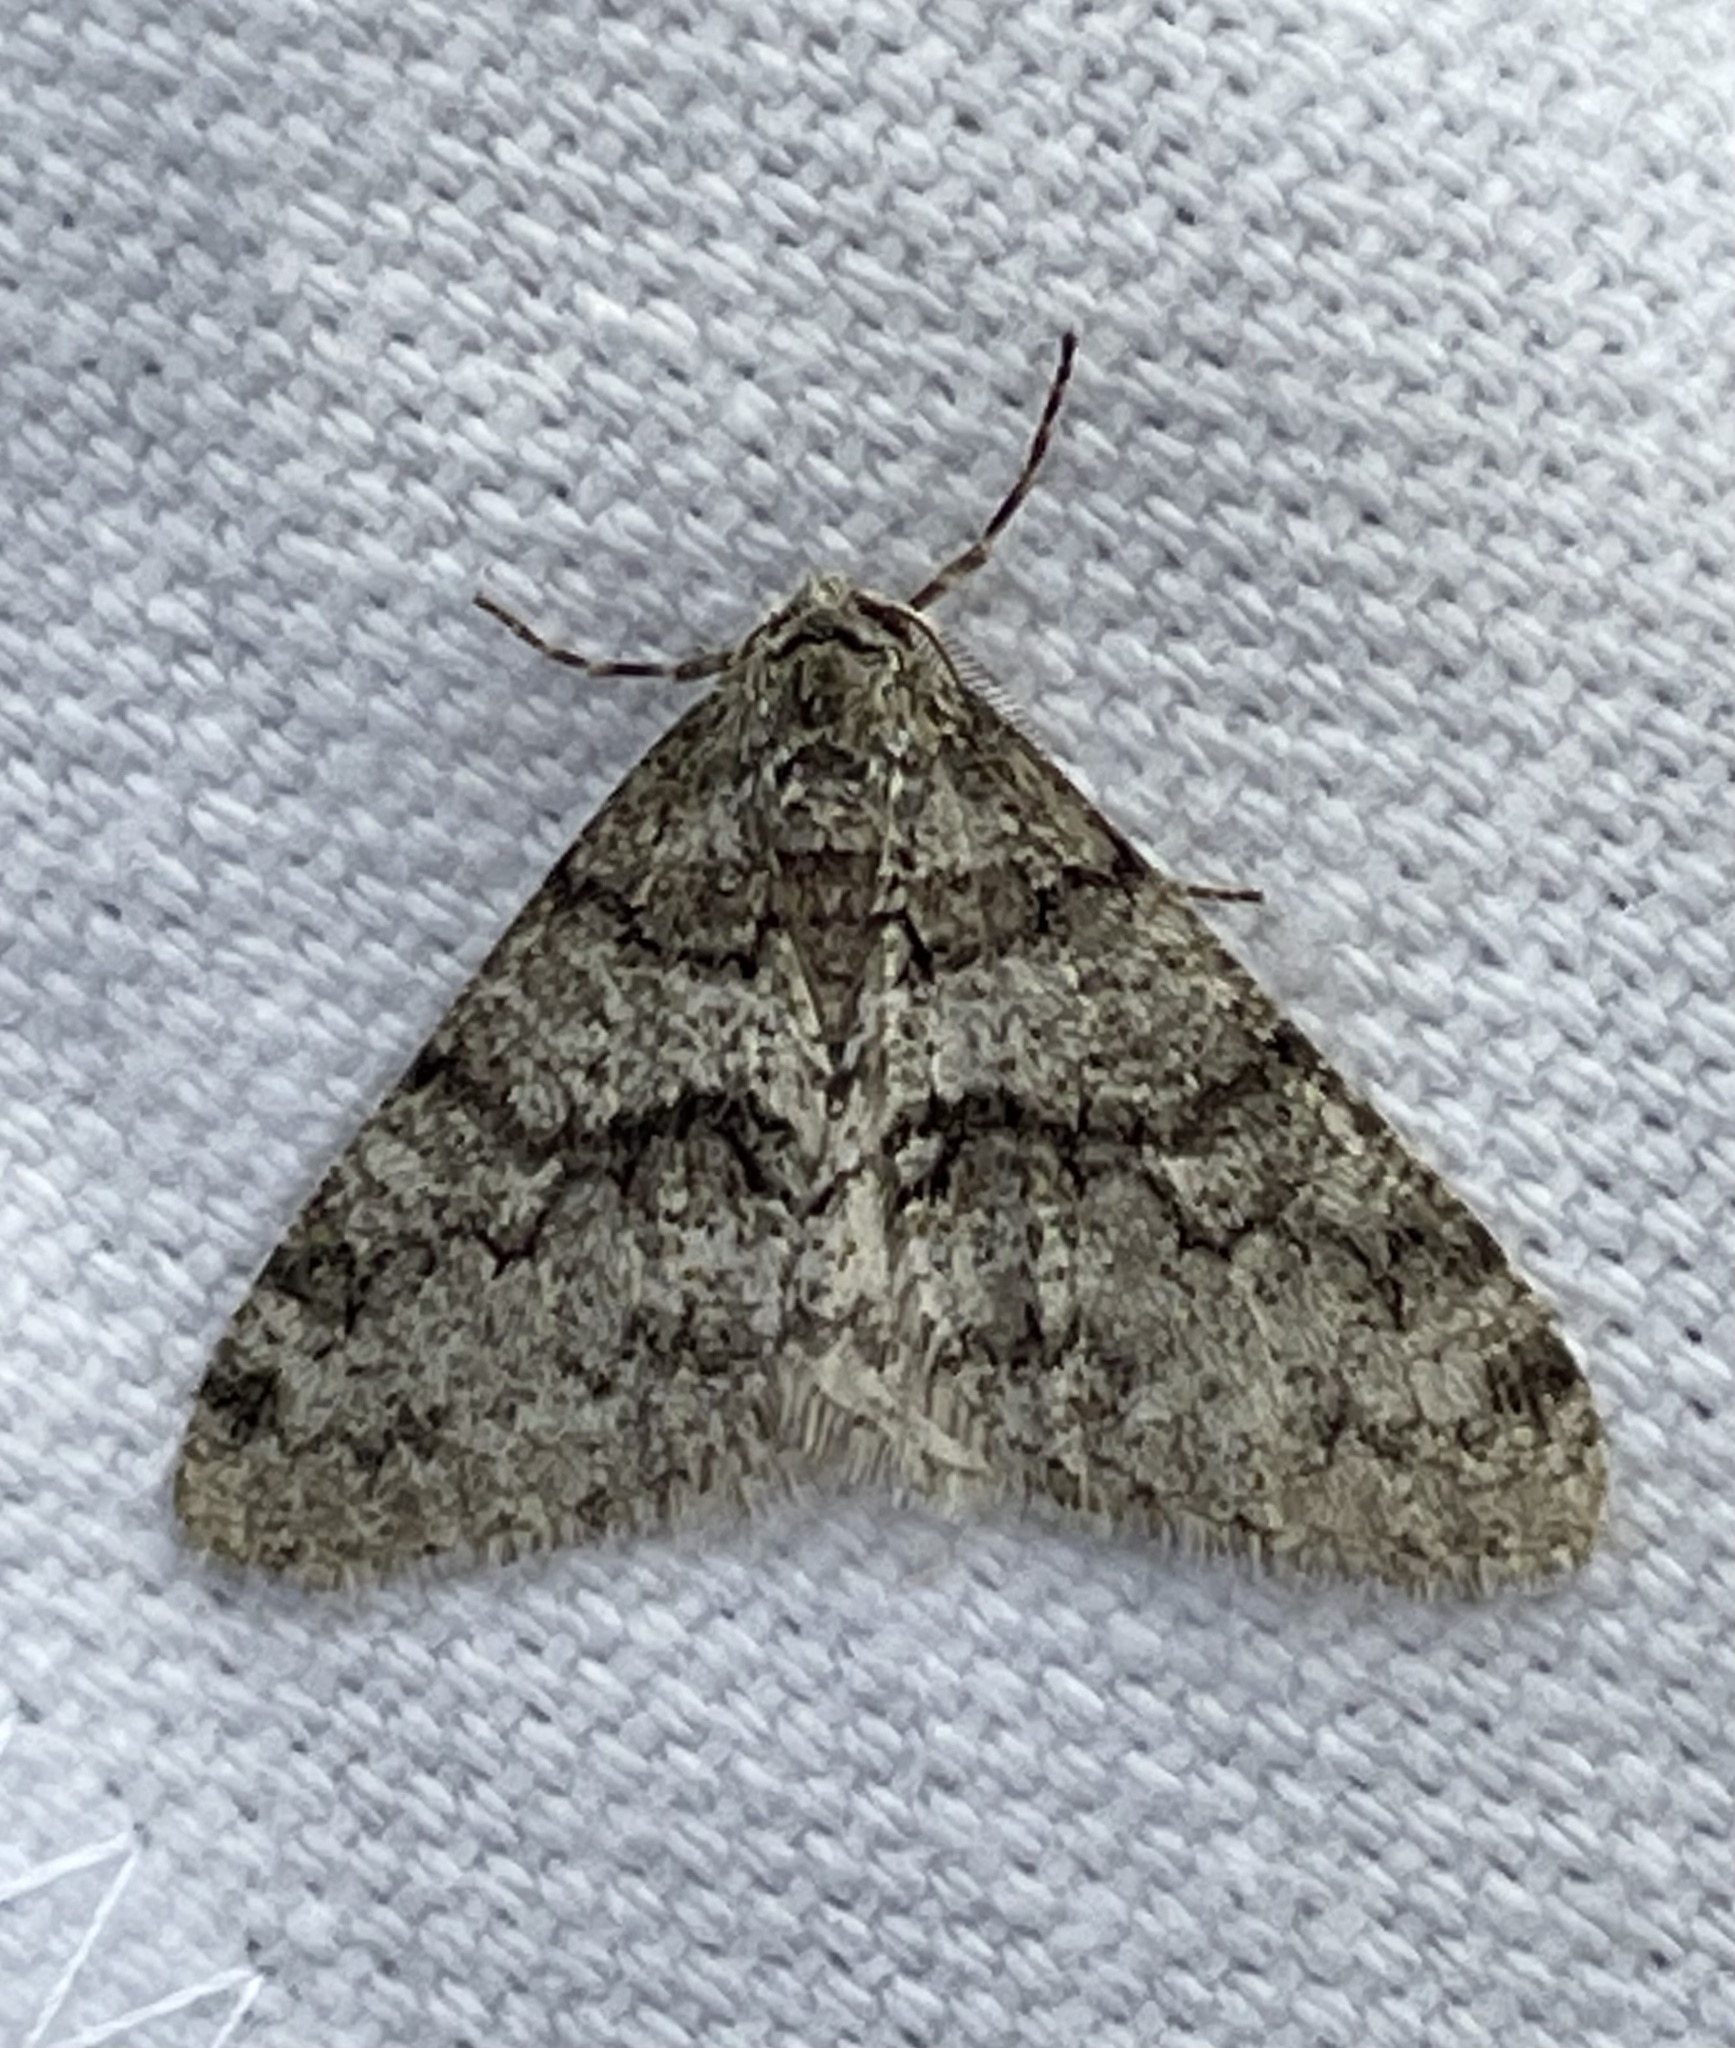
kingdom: Animalia
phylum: Arthropoda
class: Insecta
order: Lepidoptera
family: Geometridae
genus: Phigalia
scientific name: Phigalia denticulata
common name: Toothed phigalia
